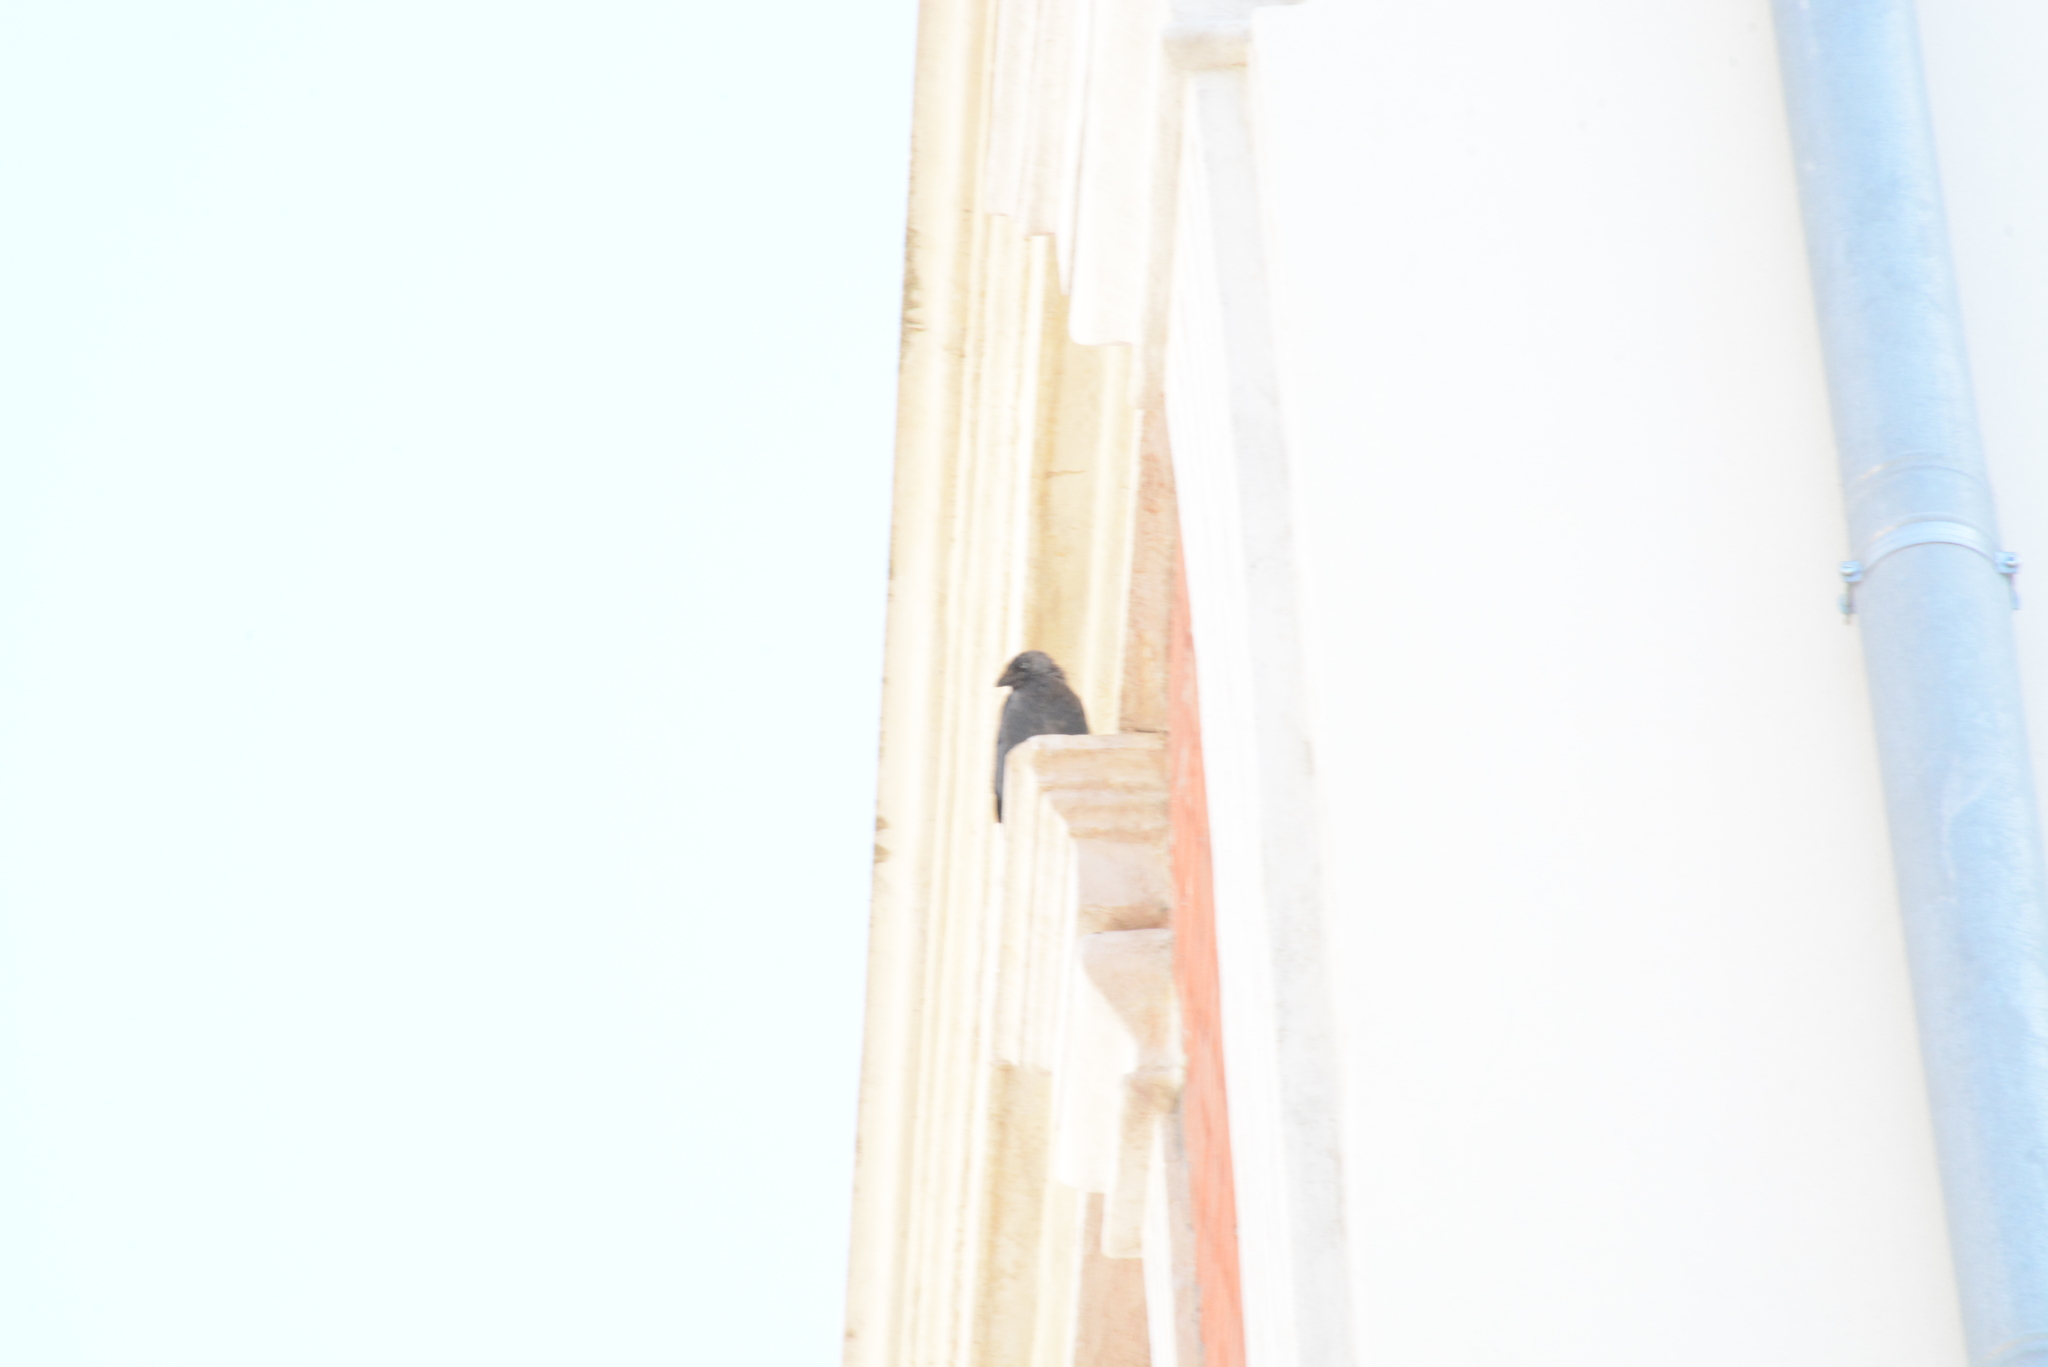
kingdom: Animalia
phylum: Chordata
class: Aves
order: Passeriformes
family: Corvidae
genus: Coloeus
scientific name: Coloeus monedula
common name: Western jackdaw
